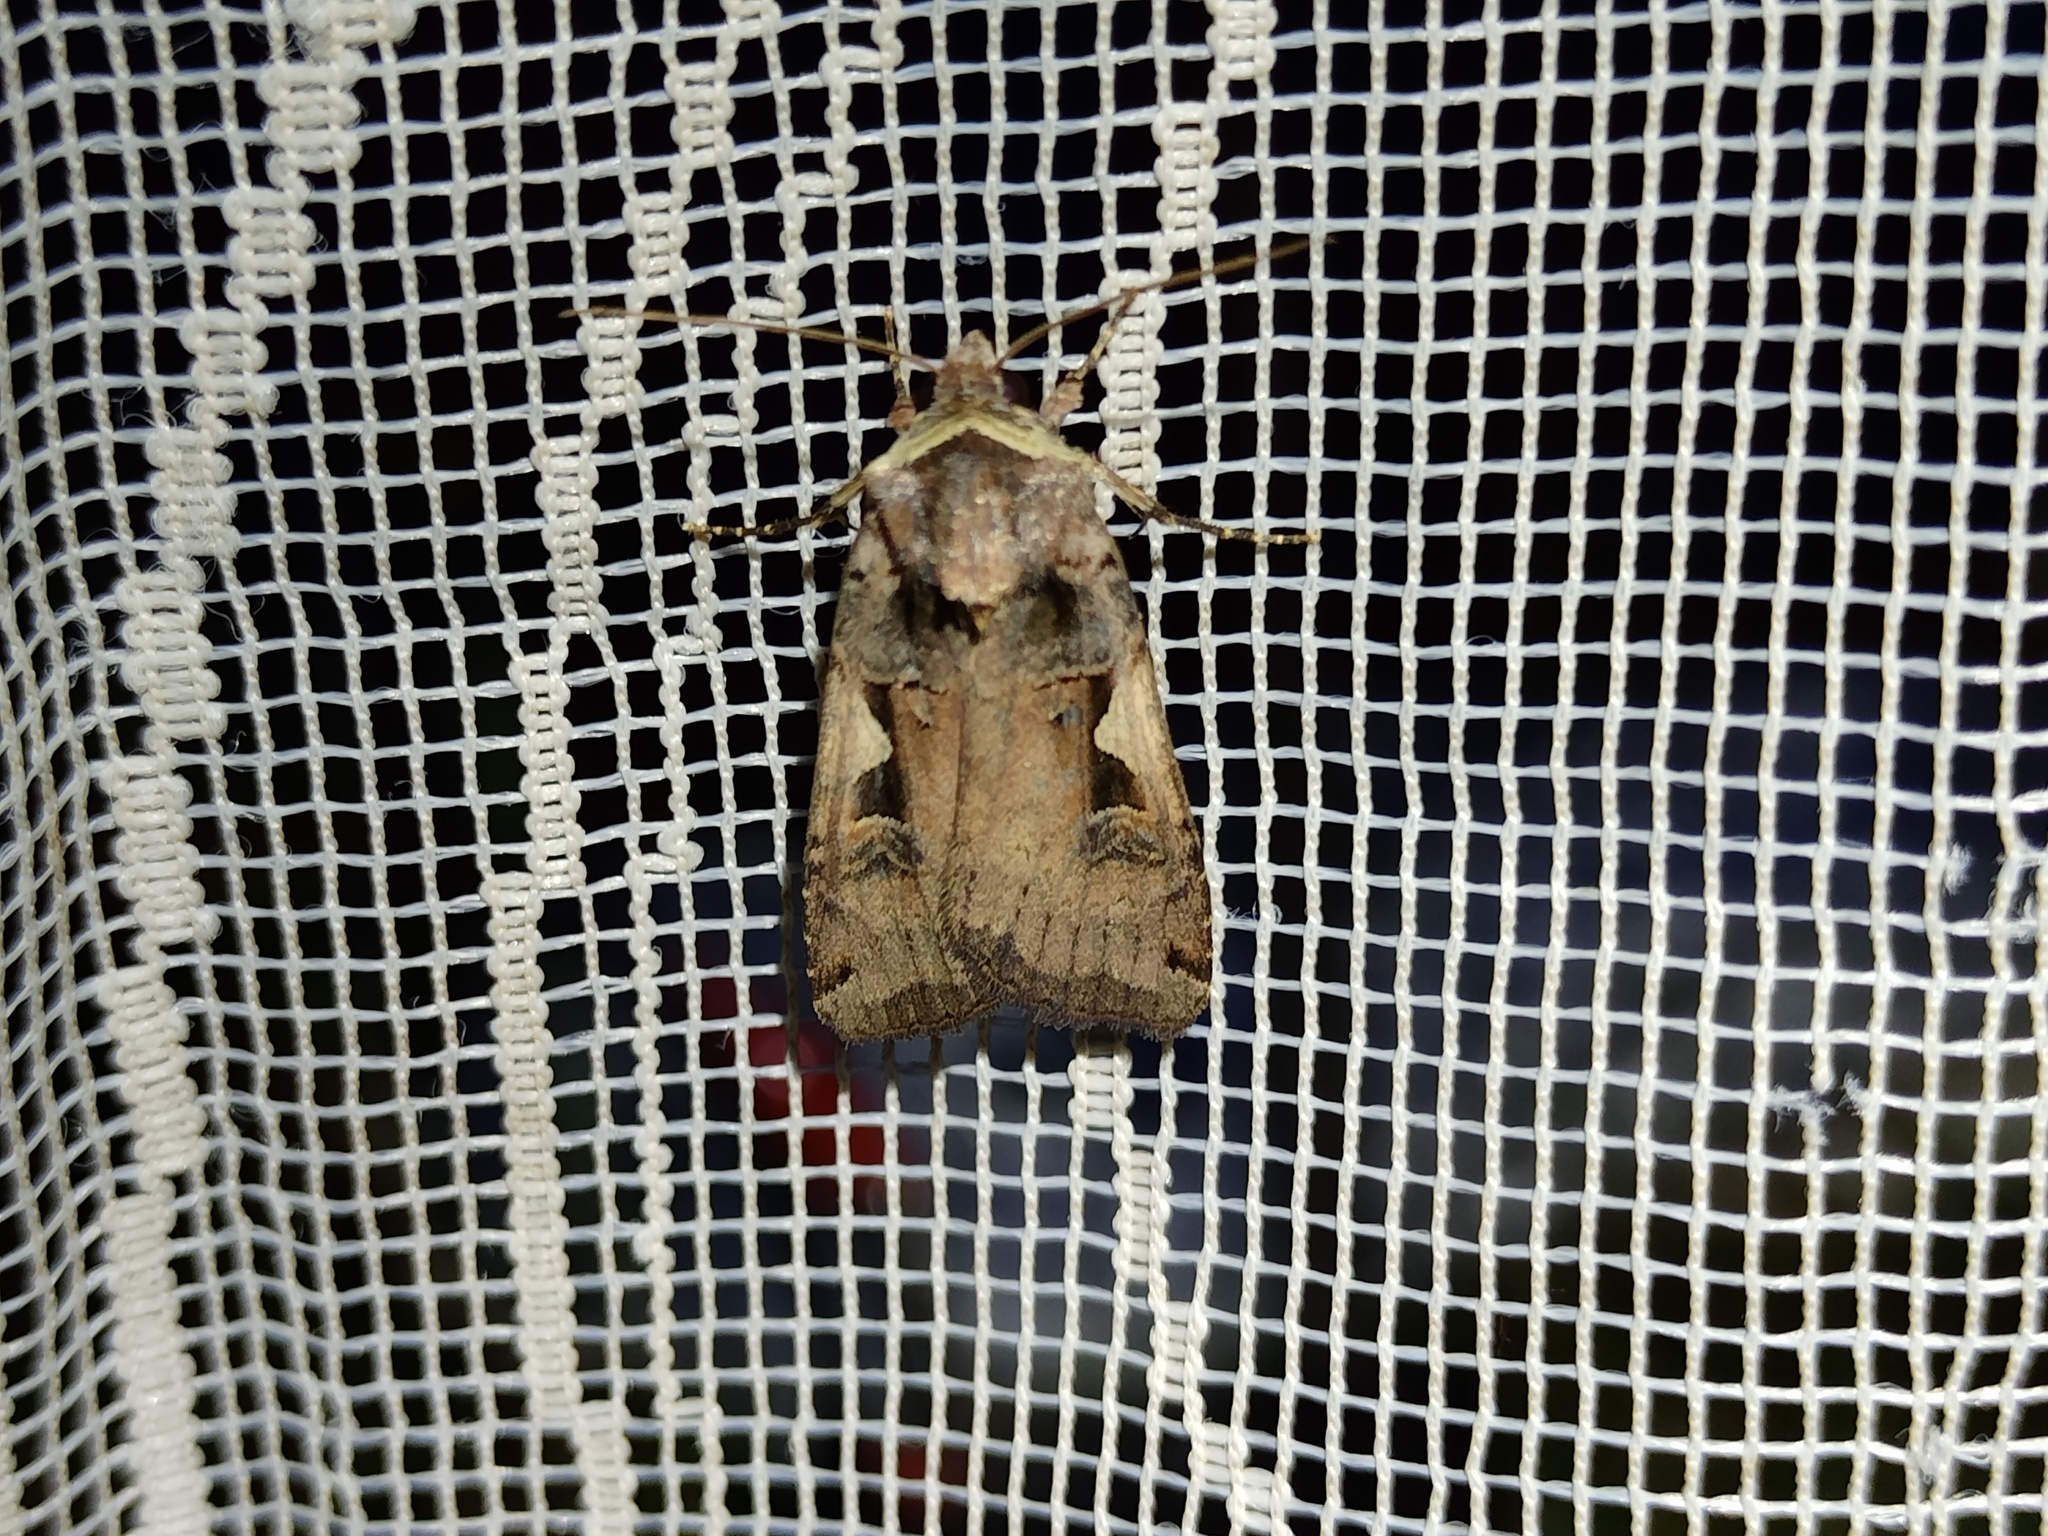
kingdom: Animalia
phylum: Arthropoda
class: Insecta
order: Lepidoptera
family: Noctuidae
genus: Xestia
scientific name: Xestia c-nigrum
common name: Setaceous hebrew character
